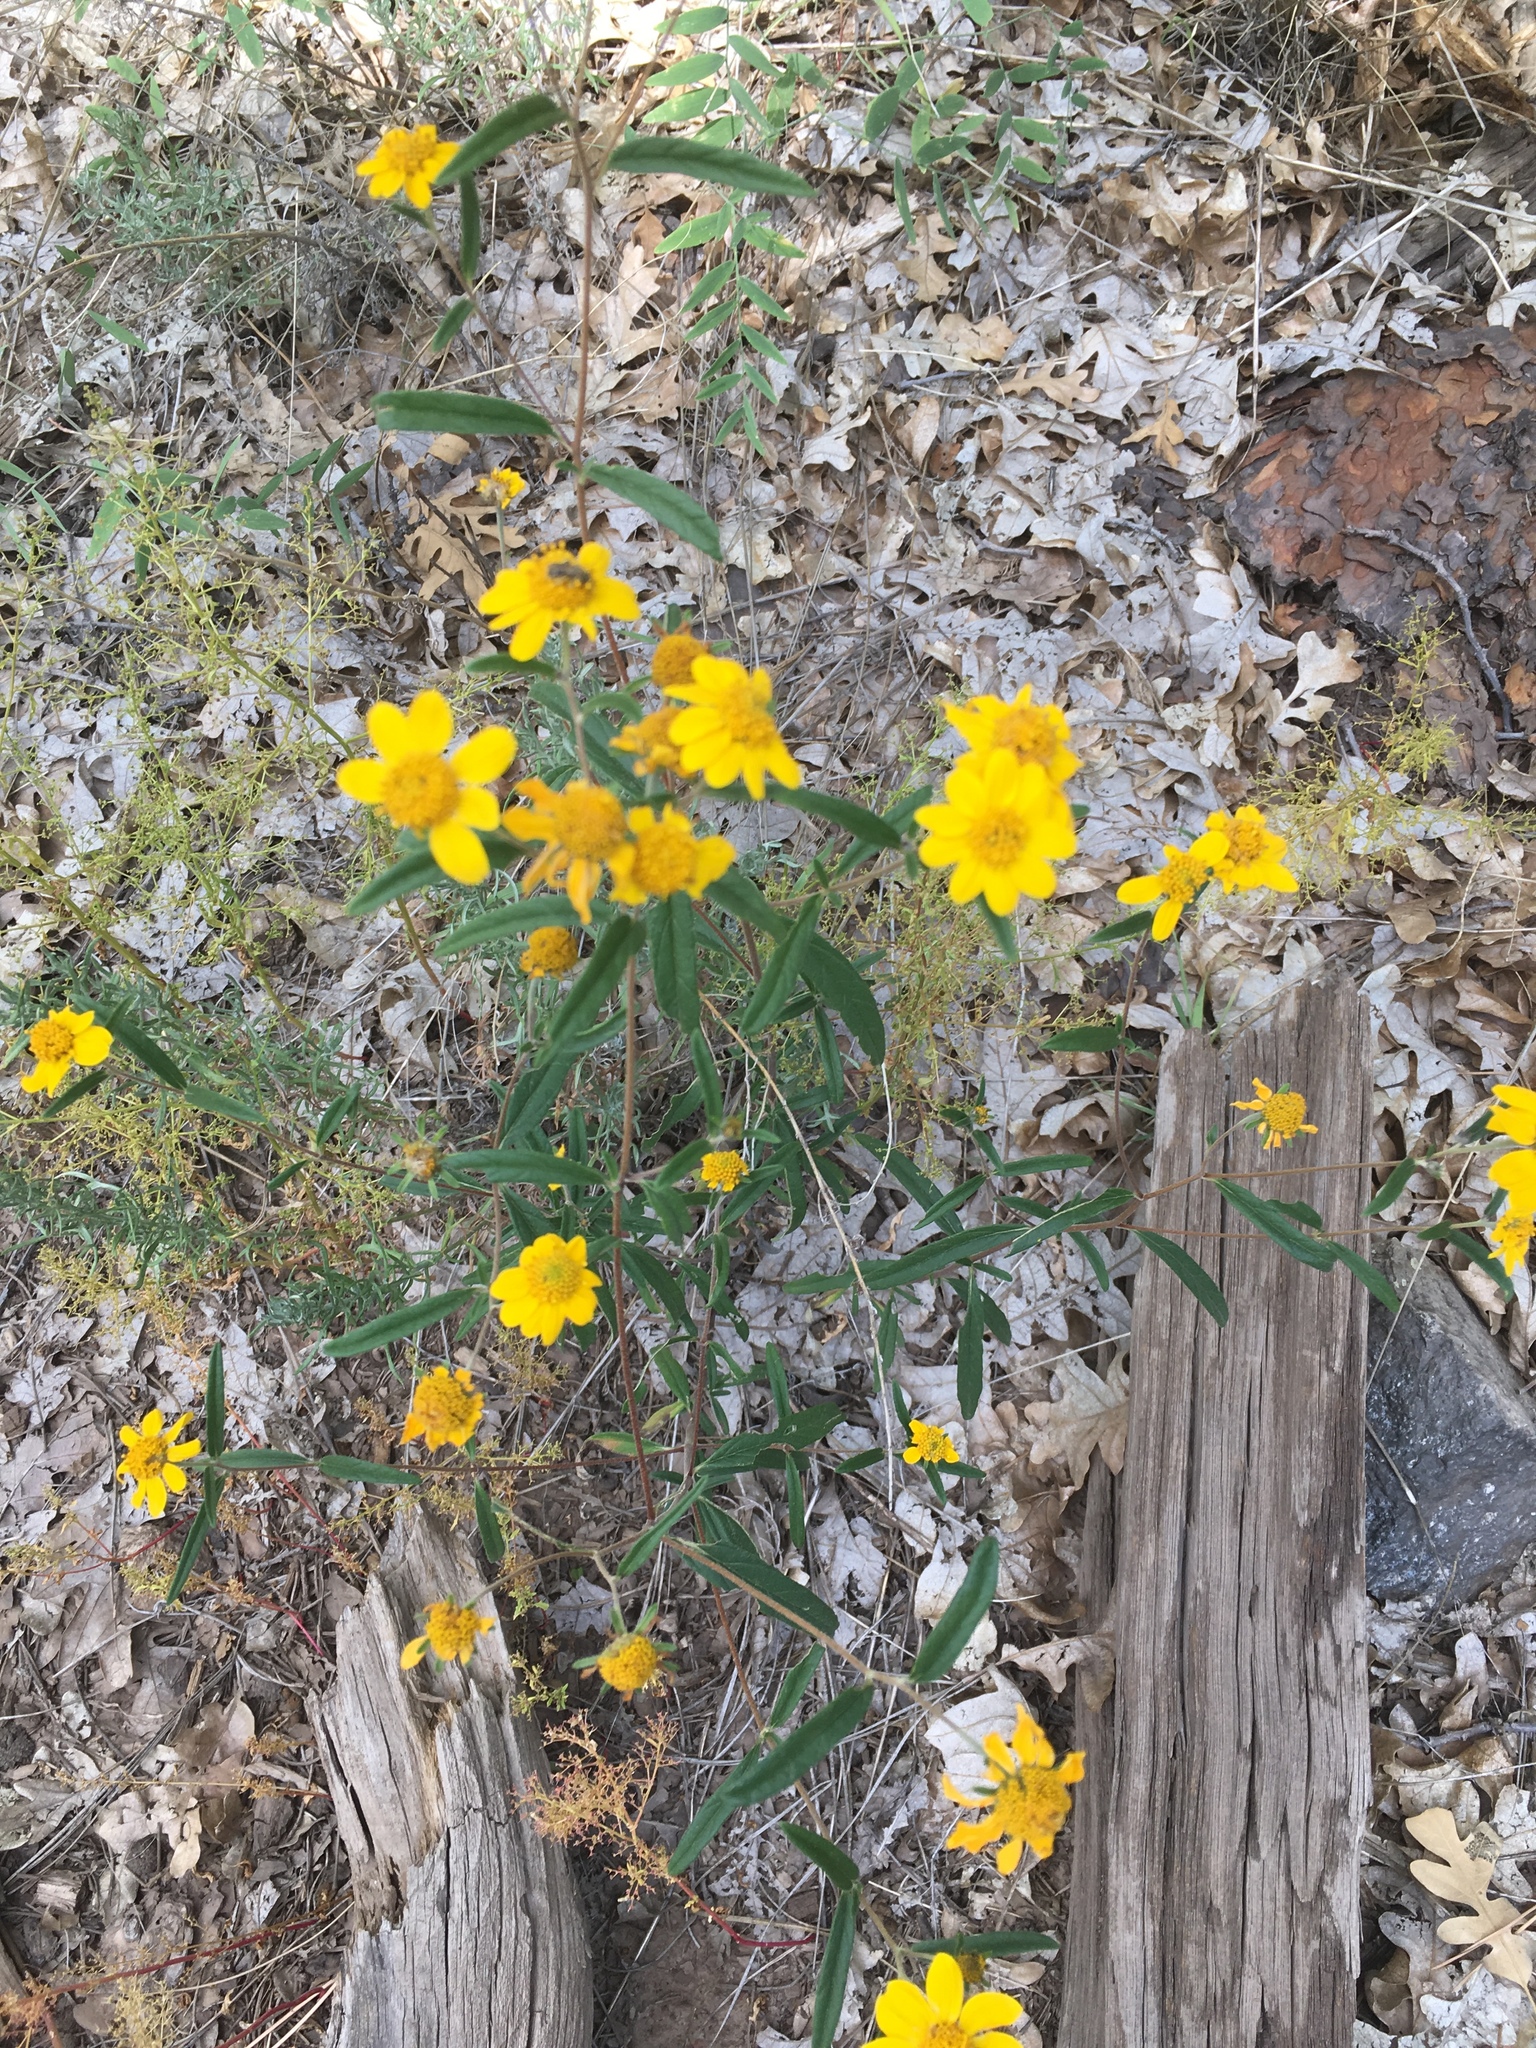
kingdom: Plantae
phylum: Tracheophyta
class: Magnoliopsida
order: Asterales
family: Asteraceae
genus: Heliomeris
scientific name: Heliomeris multiflora
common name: Showy goldeneye
